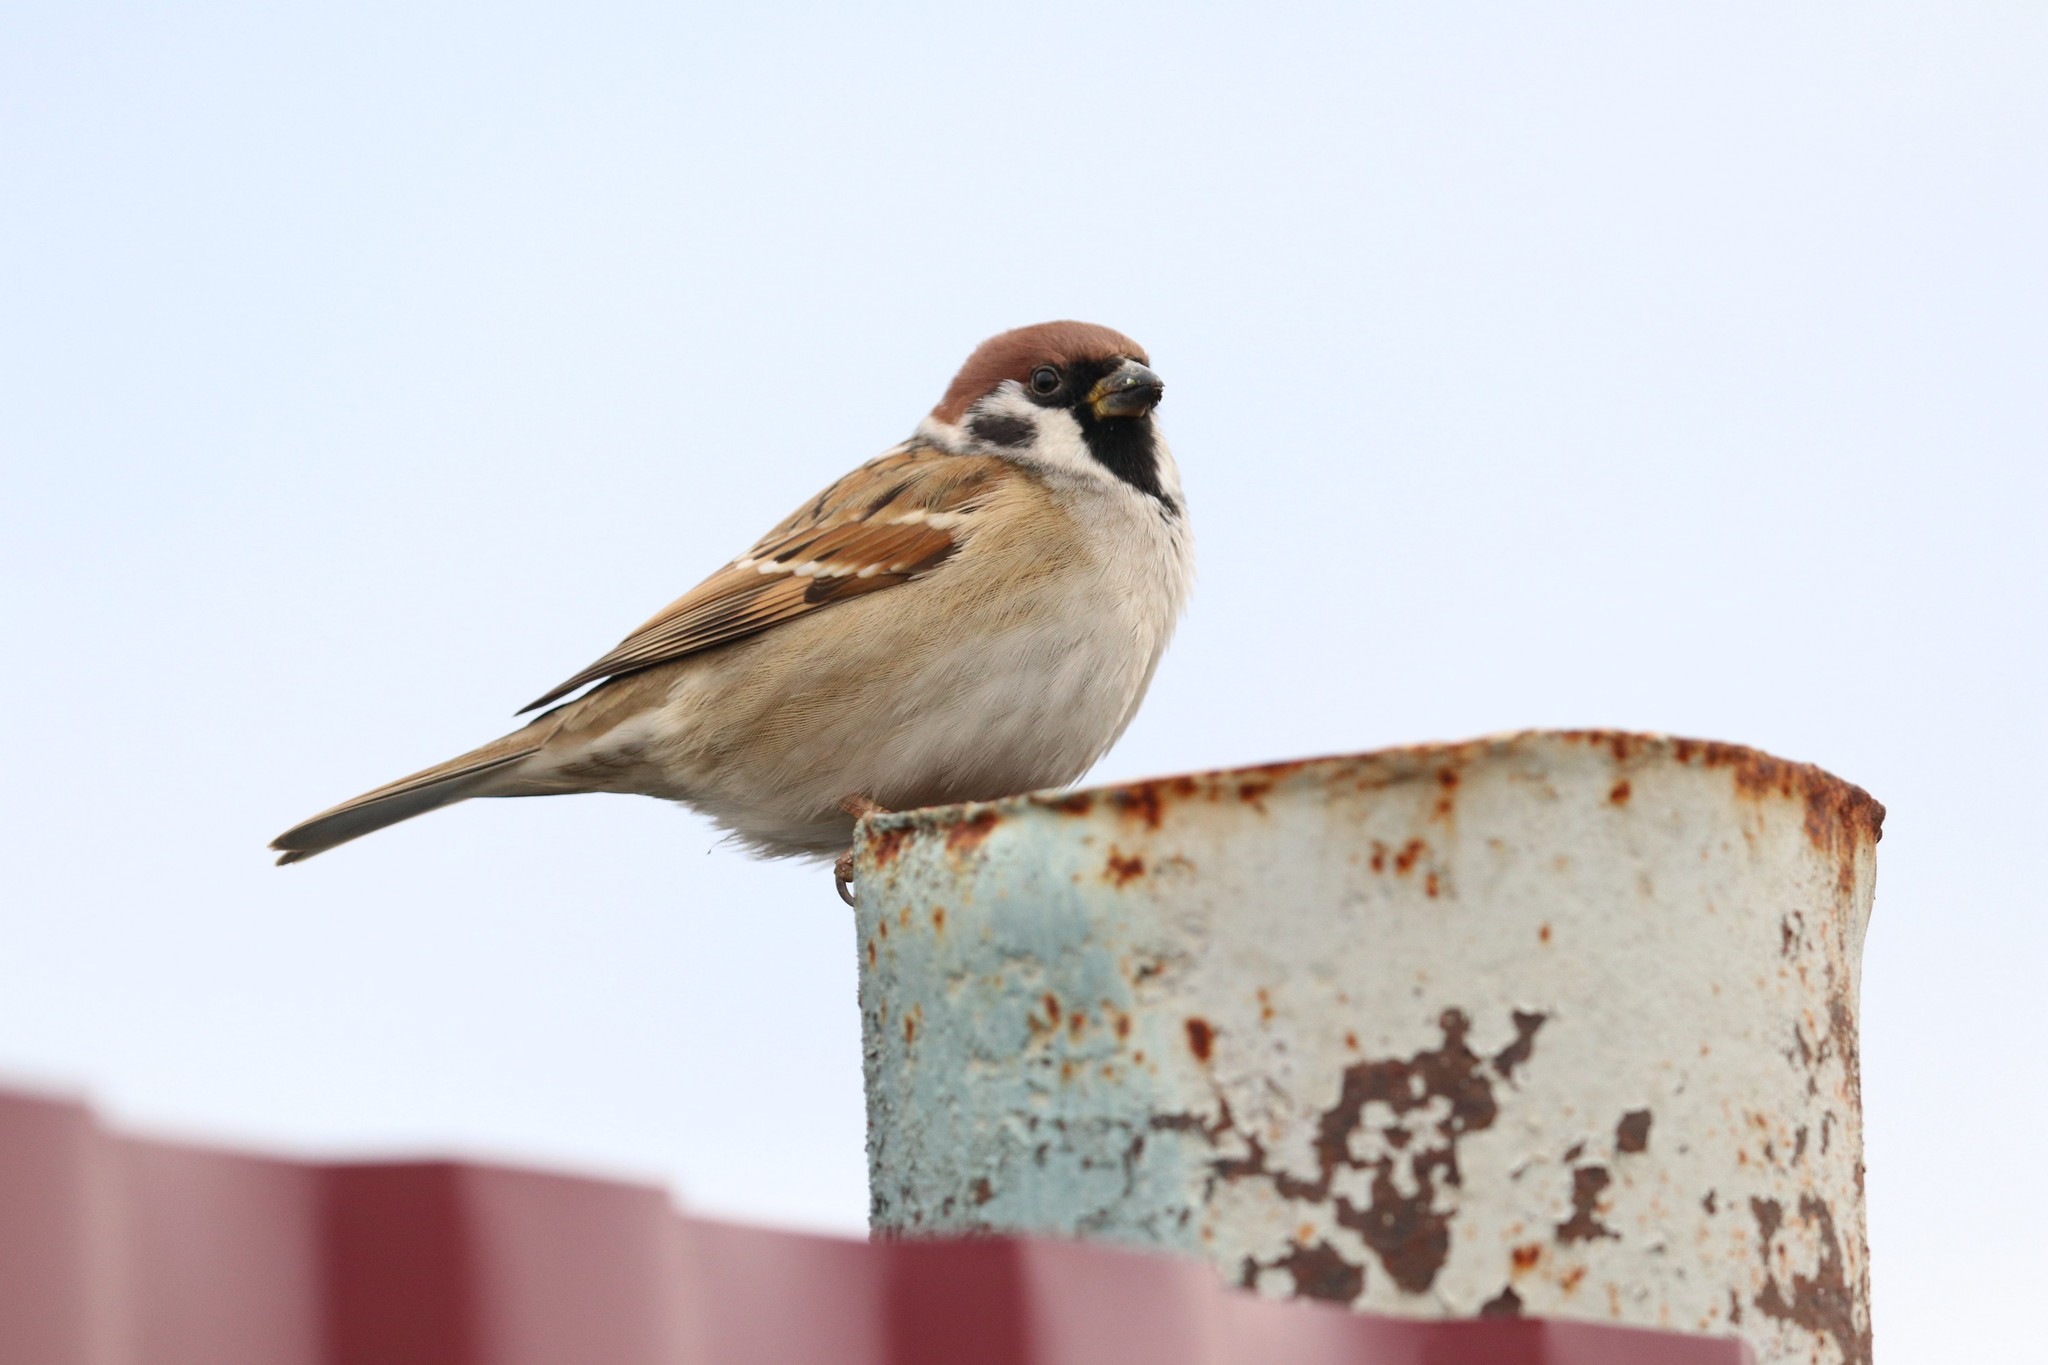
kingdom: Animalia
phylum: Chordata
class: Aves
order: Passeriformes
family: Passeridae
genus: Passer
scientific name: Passer montanus
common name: Eurasian tree sparrow
